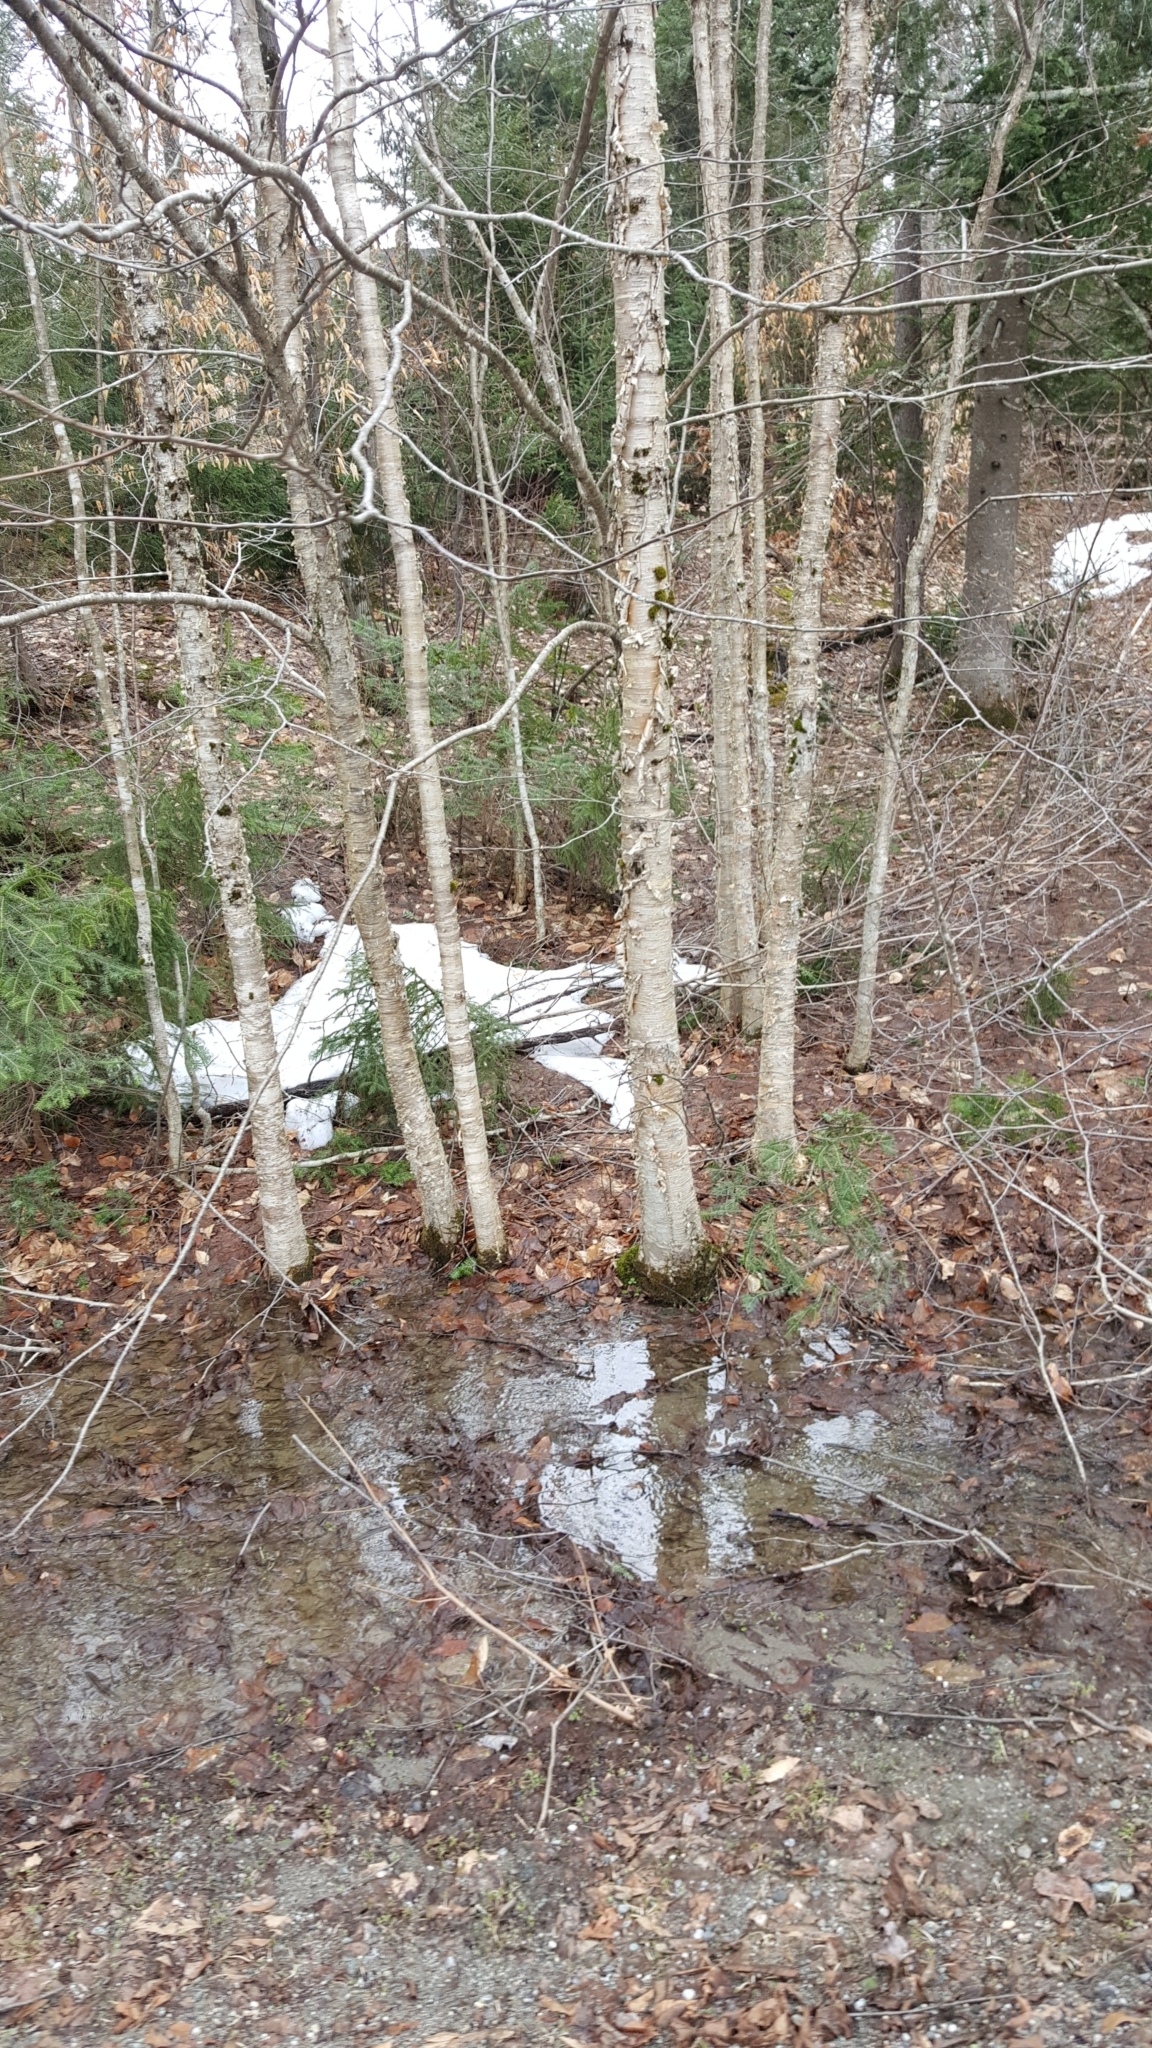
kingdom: Plantae
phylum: Tracheophyta
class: Magnoliopsida
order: Fagales
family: Betulaceae
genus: Betula
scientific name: Betula alleghaniensis
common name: Yellow birch
